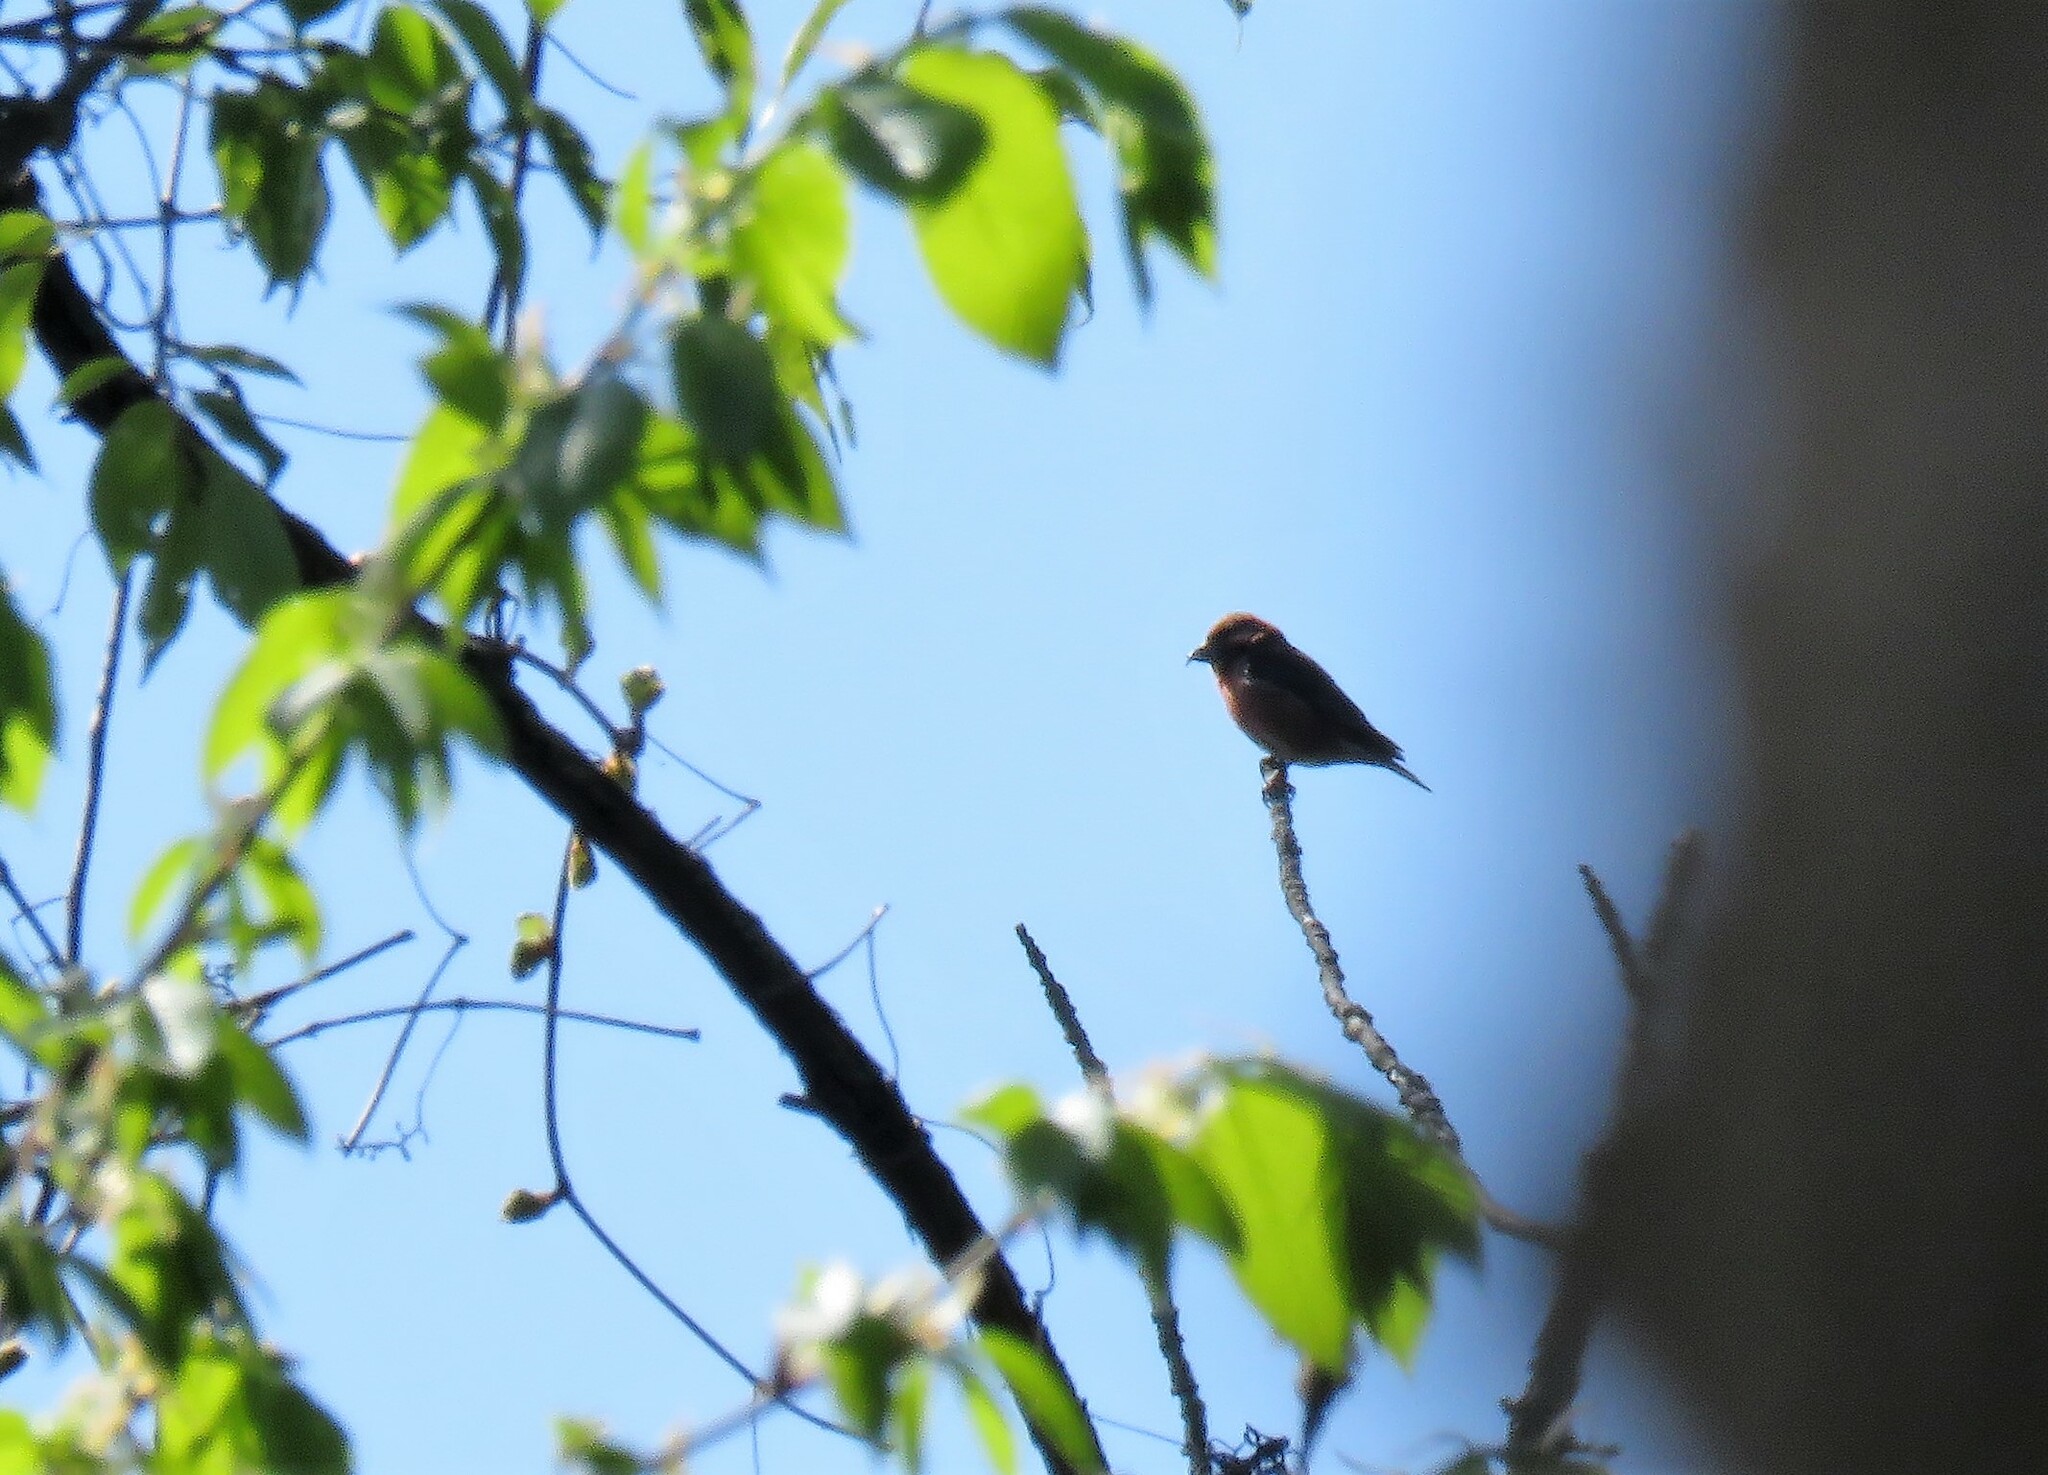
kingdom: Animalia
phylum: Chordata
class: Aves
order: Passeriformes
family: Fringillidae
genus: Loxia
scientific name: Loxia curvirostra
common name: Red crossbill
